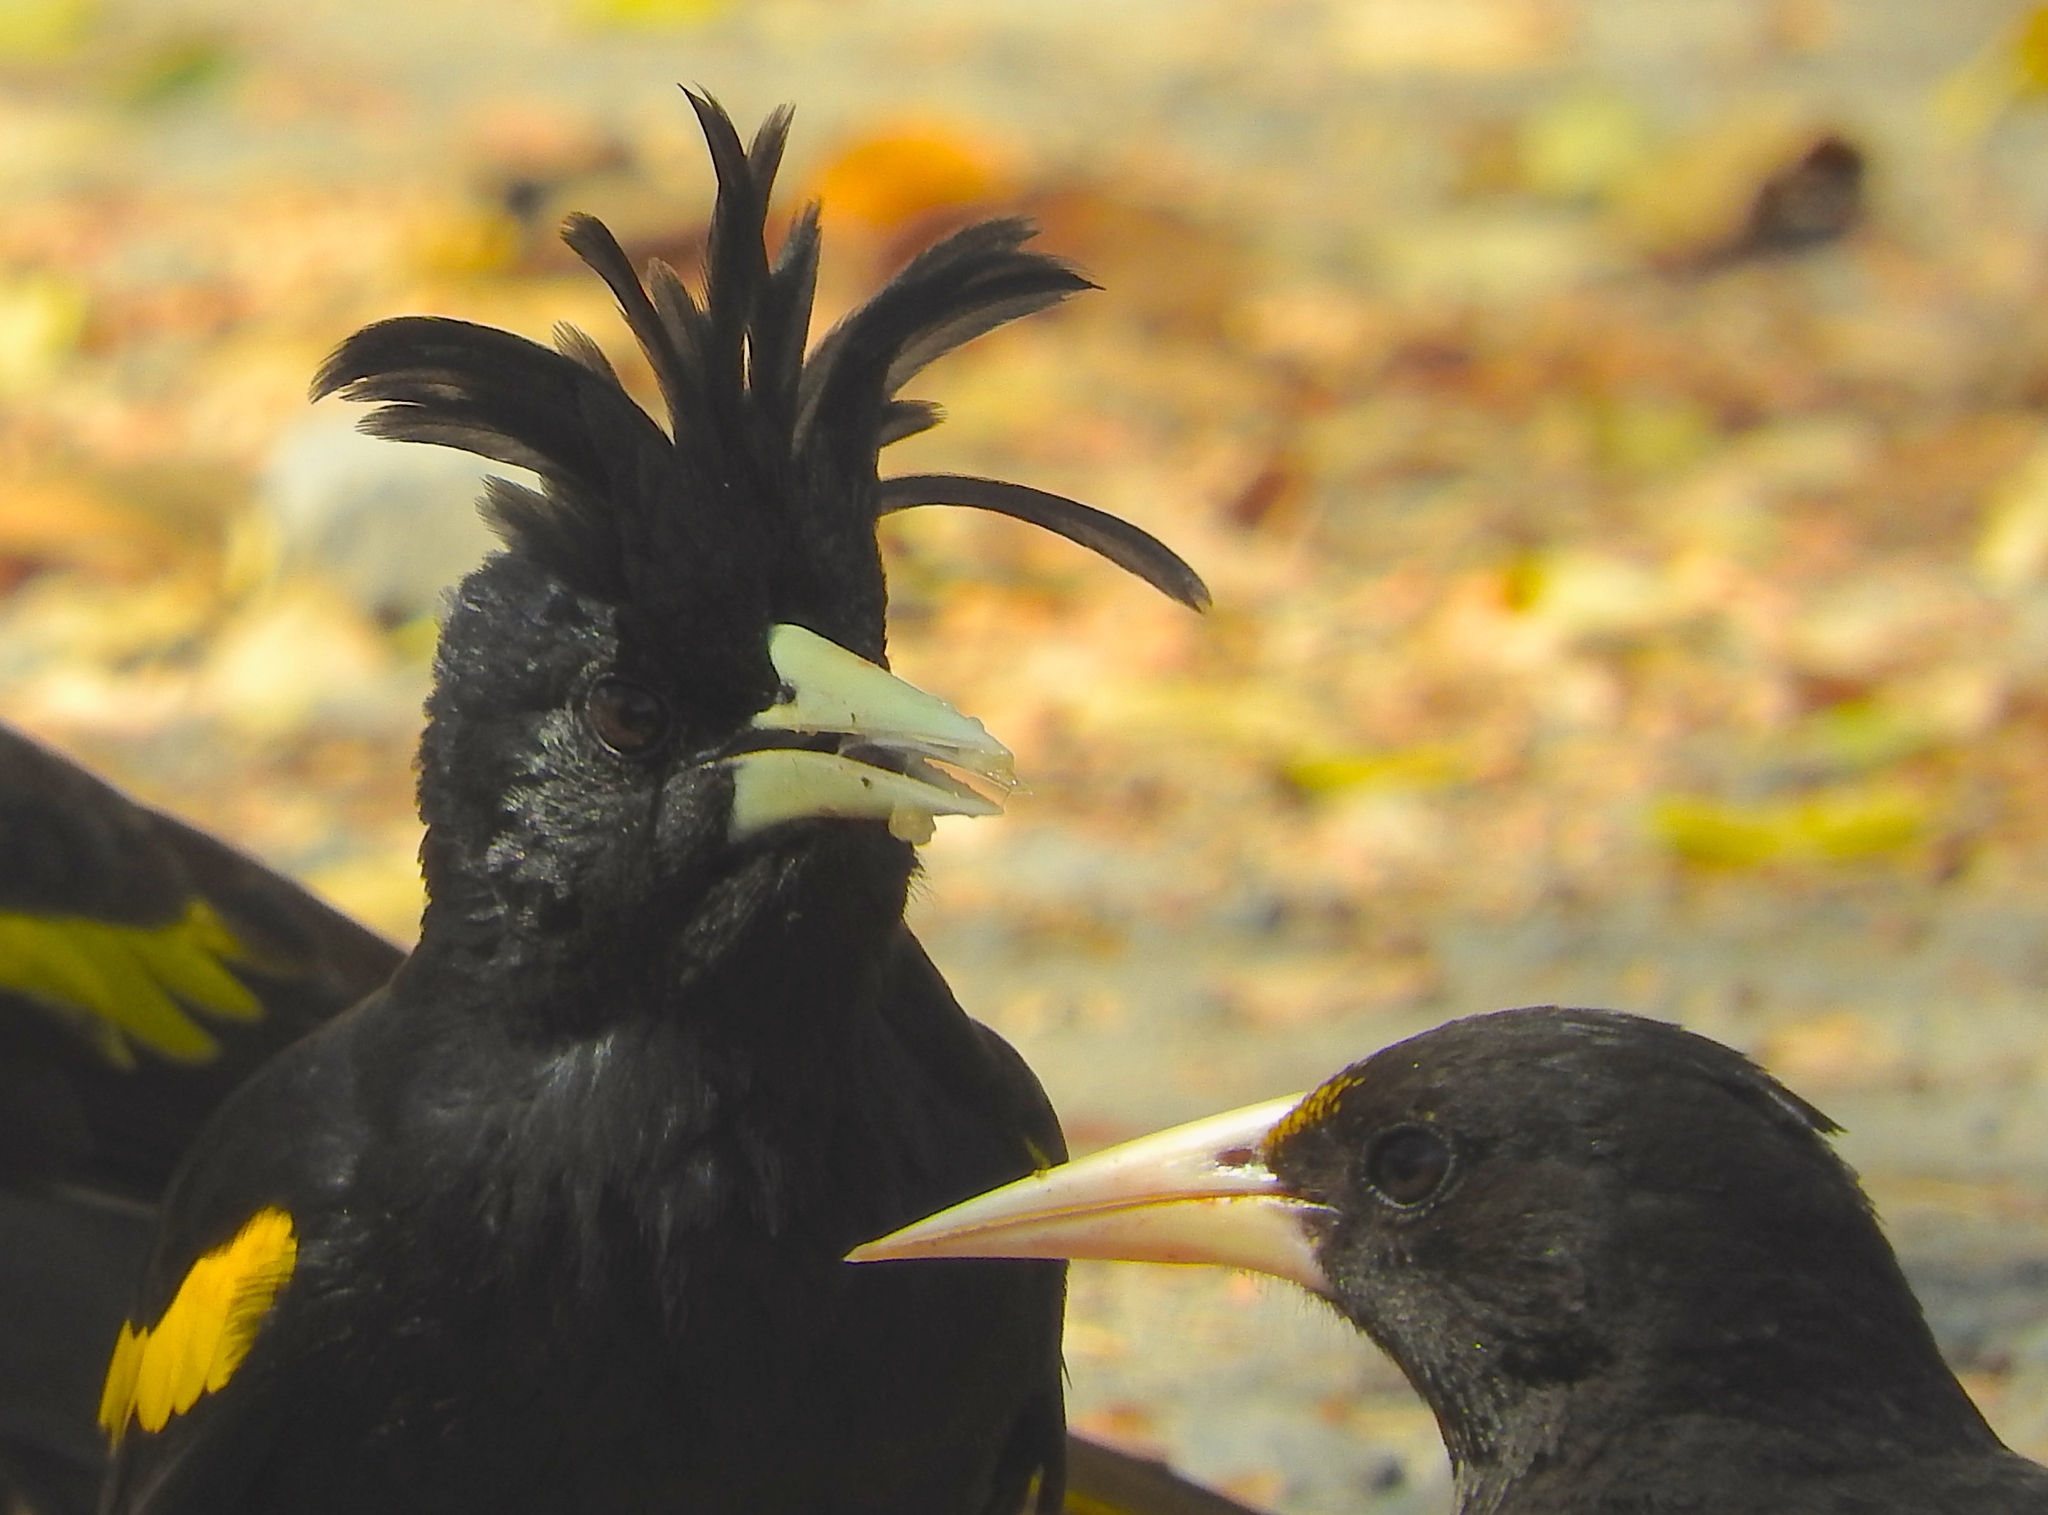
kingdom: Animalia
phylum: Chordata
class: Aves
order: Passeriformes
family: Icteridae
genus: Cacicus
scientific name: Cacicus melanicterus
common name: Yellow-winged cacique
